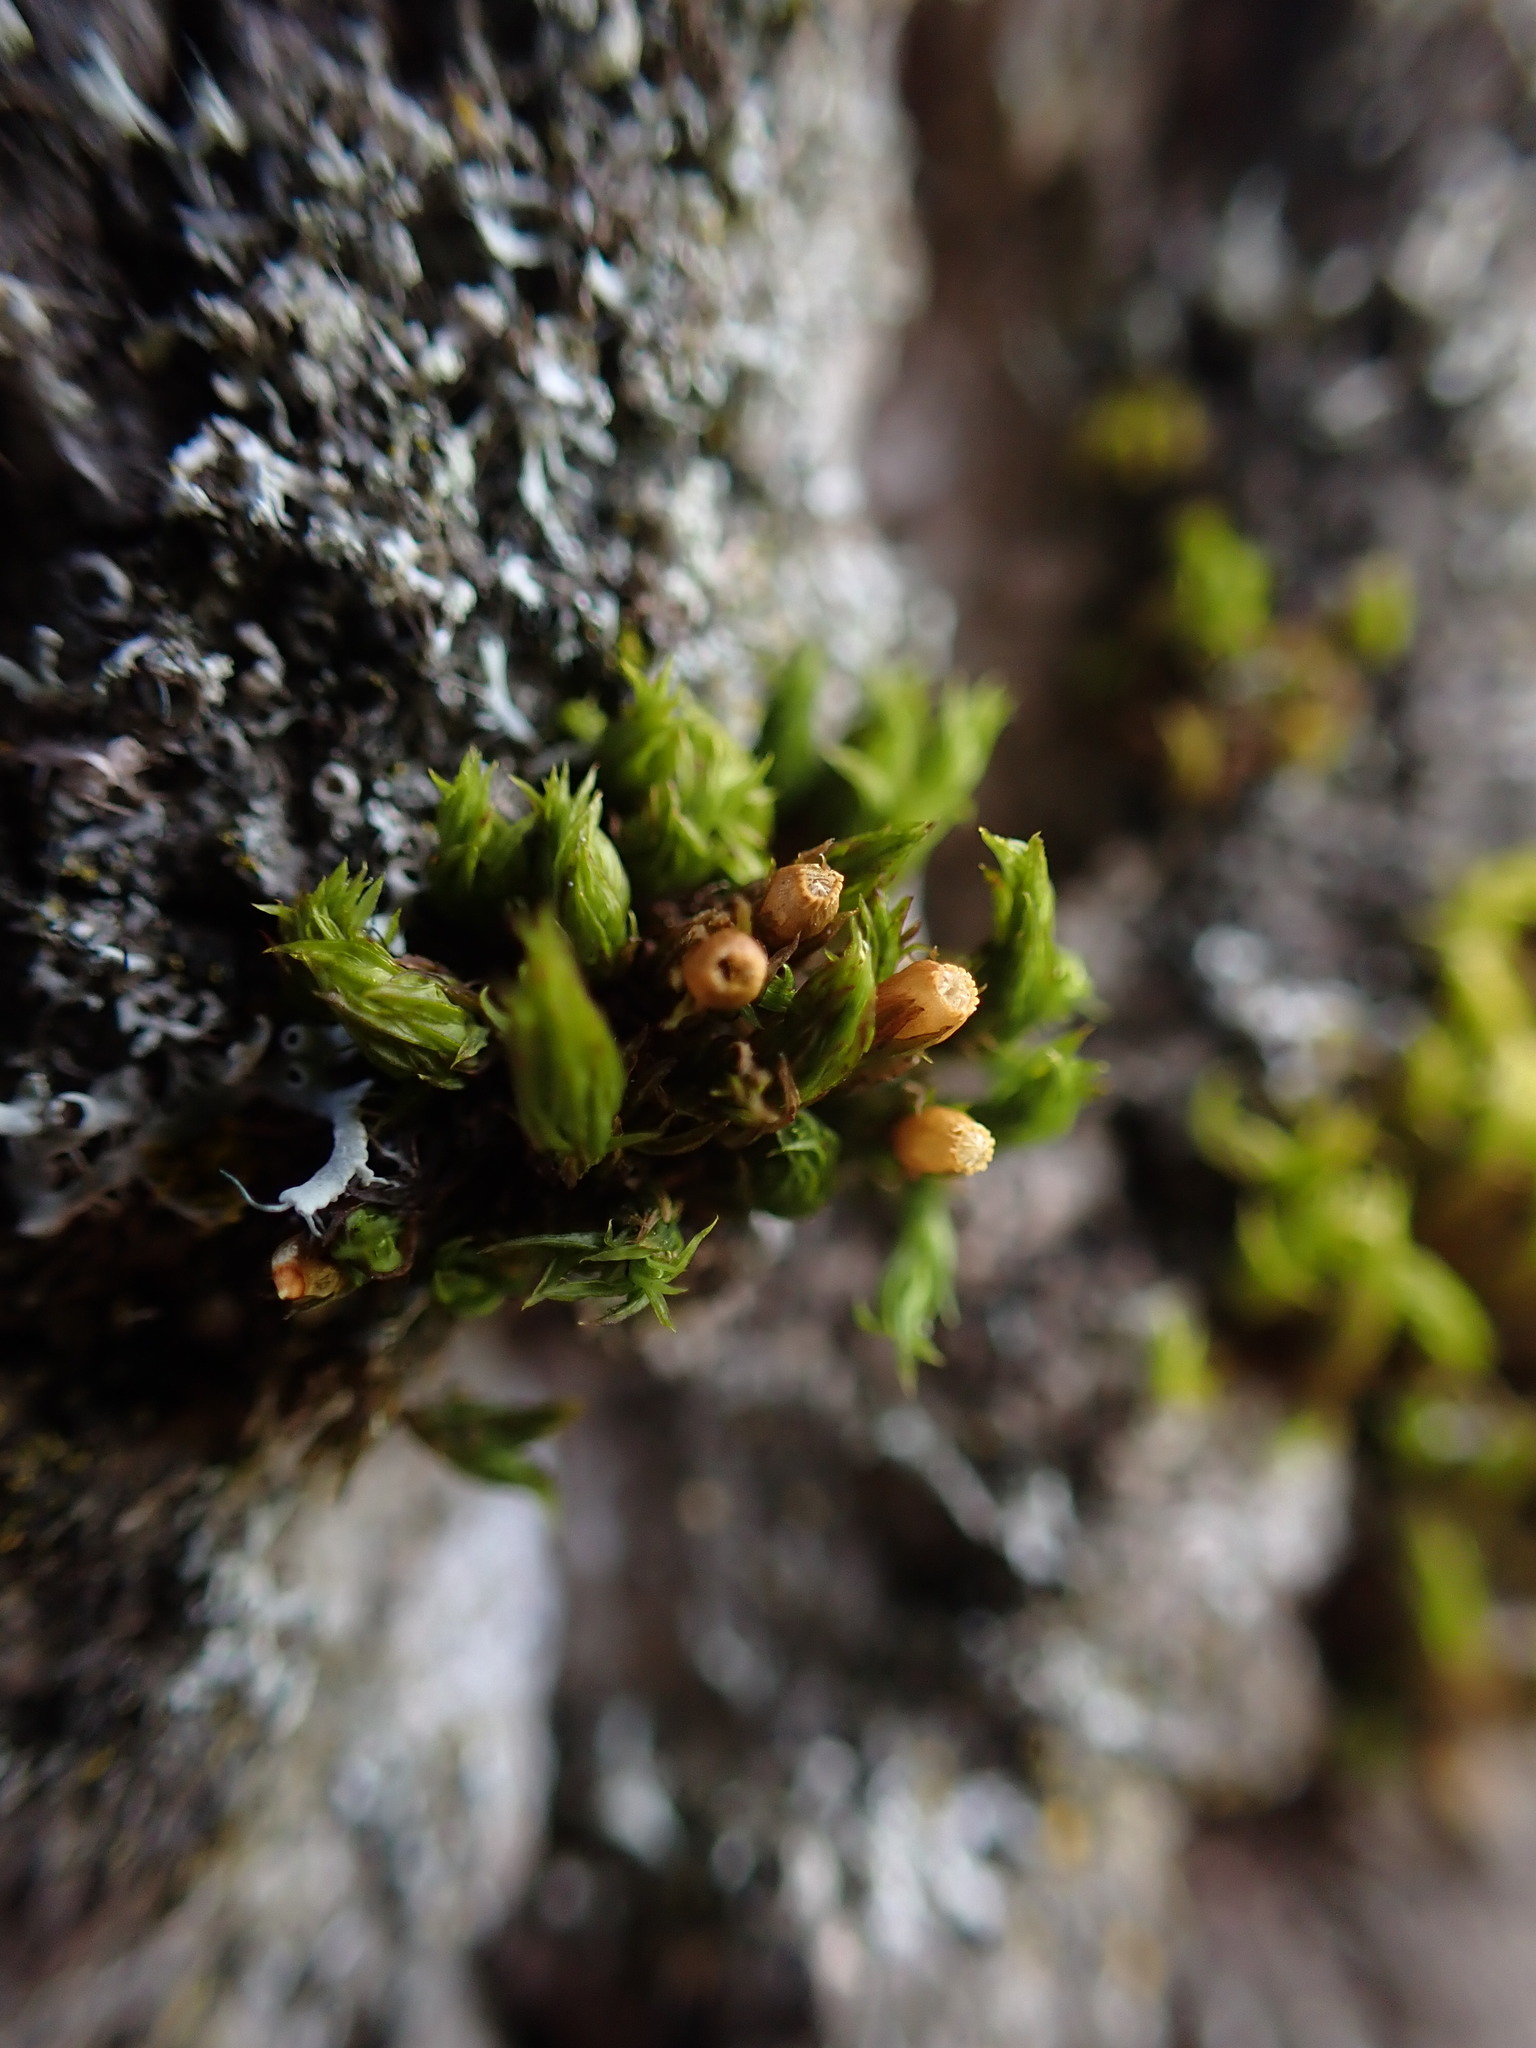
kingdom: Plantae
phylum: Bryophyta
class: Bryopsida
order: Orthotrichales
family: Orthotrichaceae
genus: Lewinskya
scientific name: Lewinskya striata
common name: Shaw's bristle-moss
